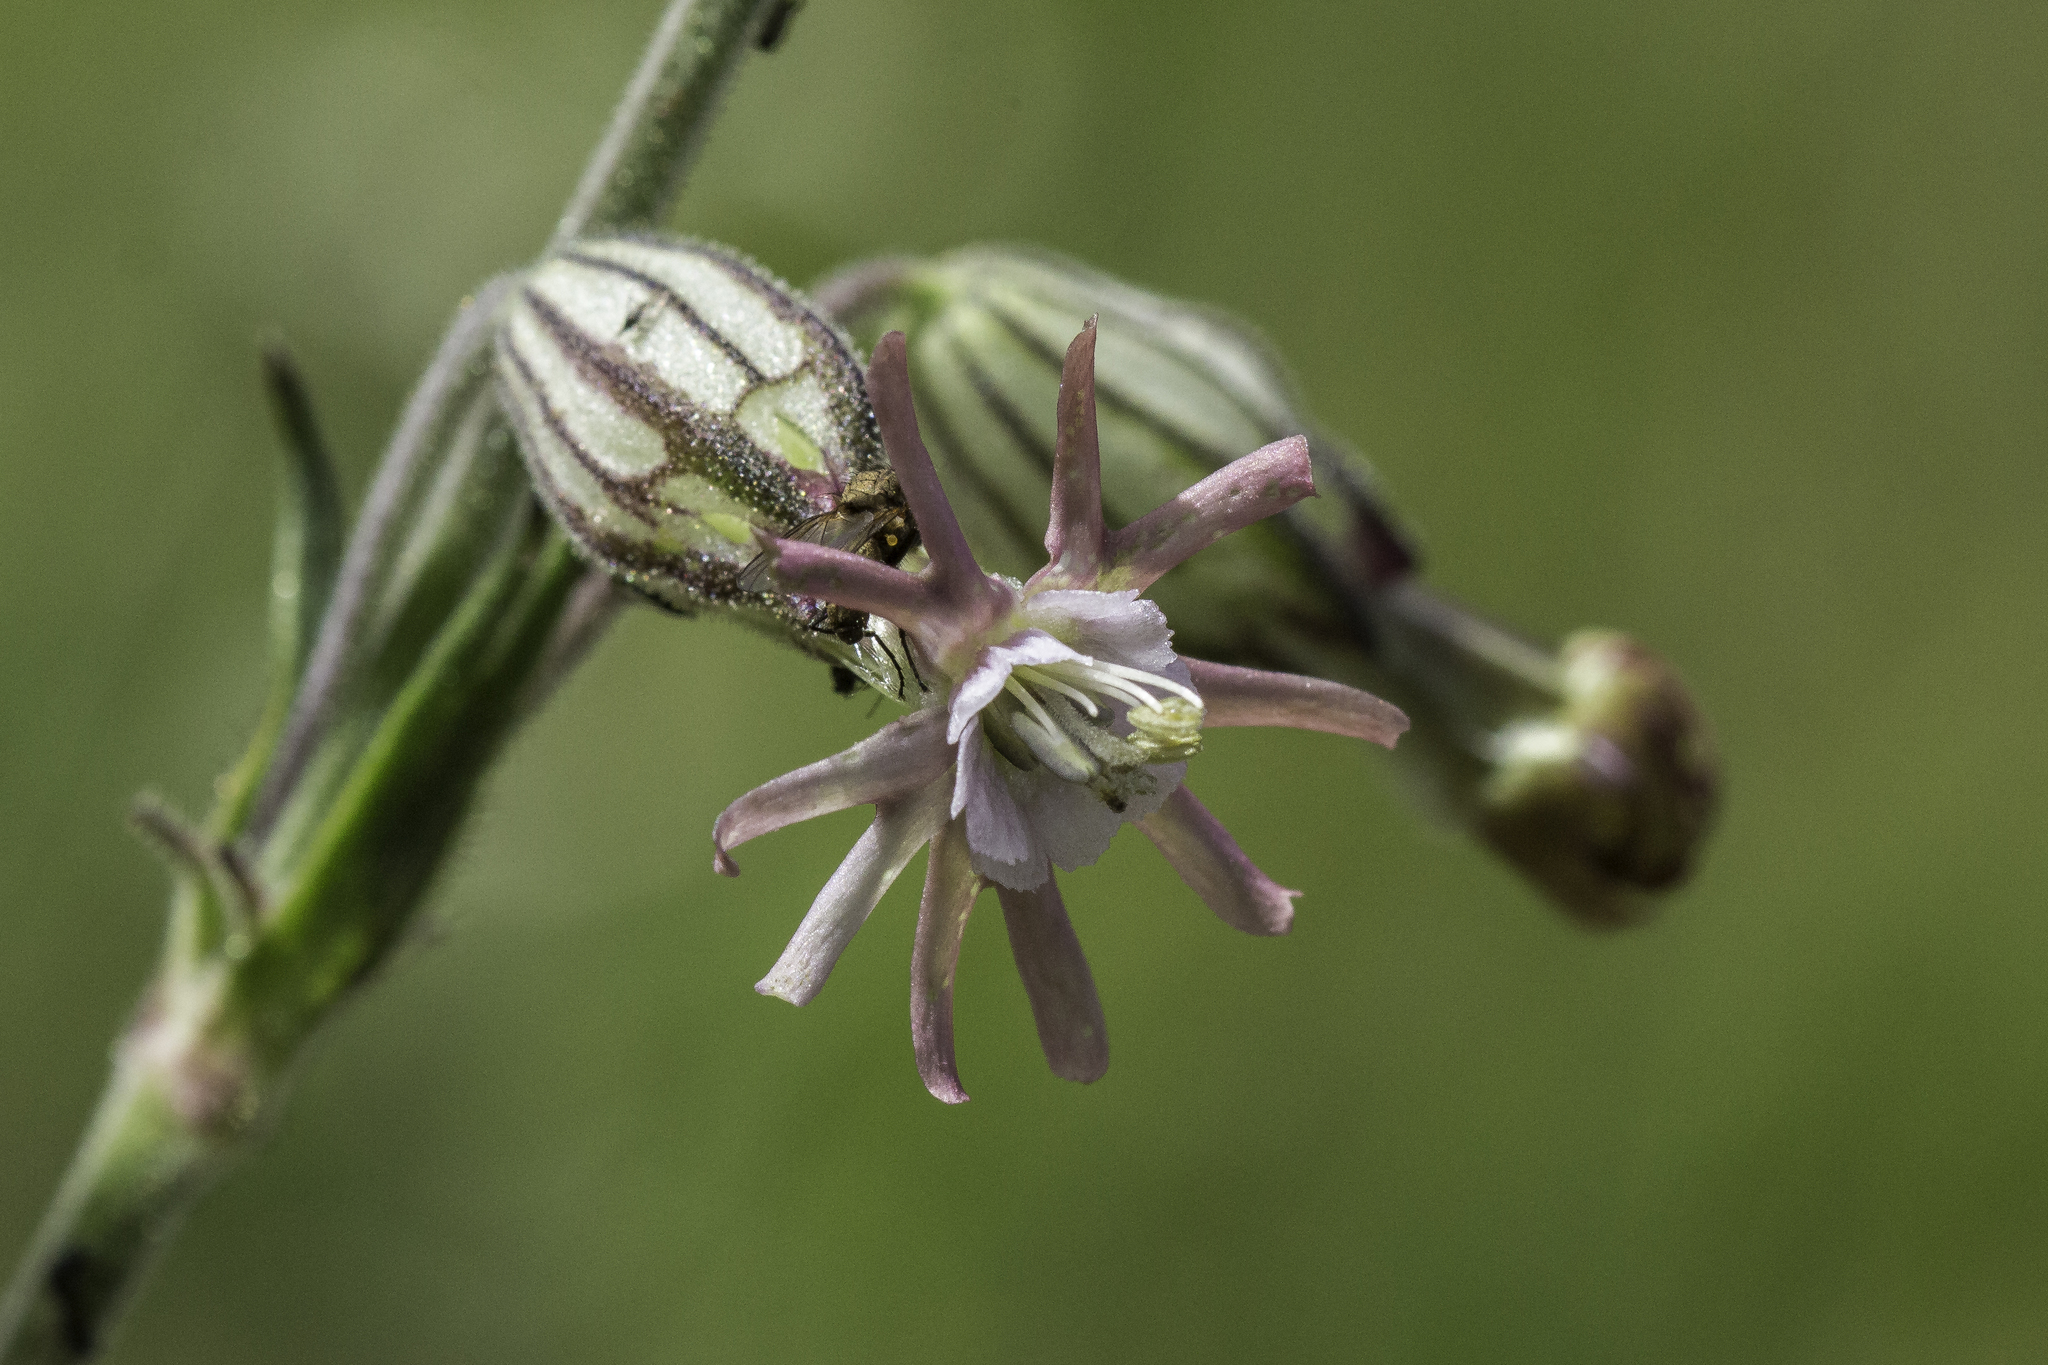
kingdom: Plantae
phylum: Tracheophyta
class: Magnoliopsida
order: Caryophyllales
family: Caryophyllaceae
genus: Silene
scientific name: Silene scouleri
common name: Scouler's campion
